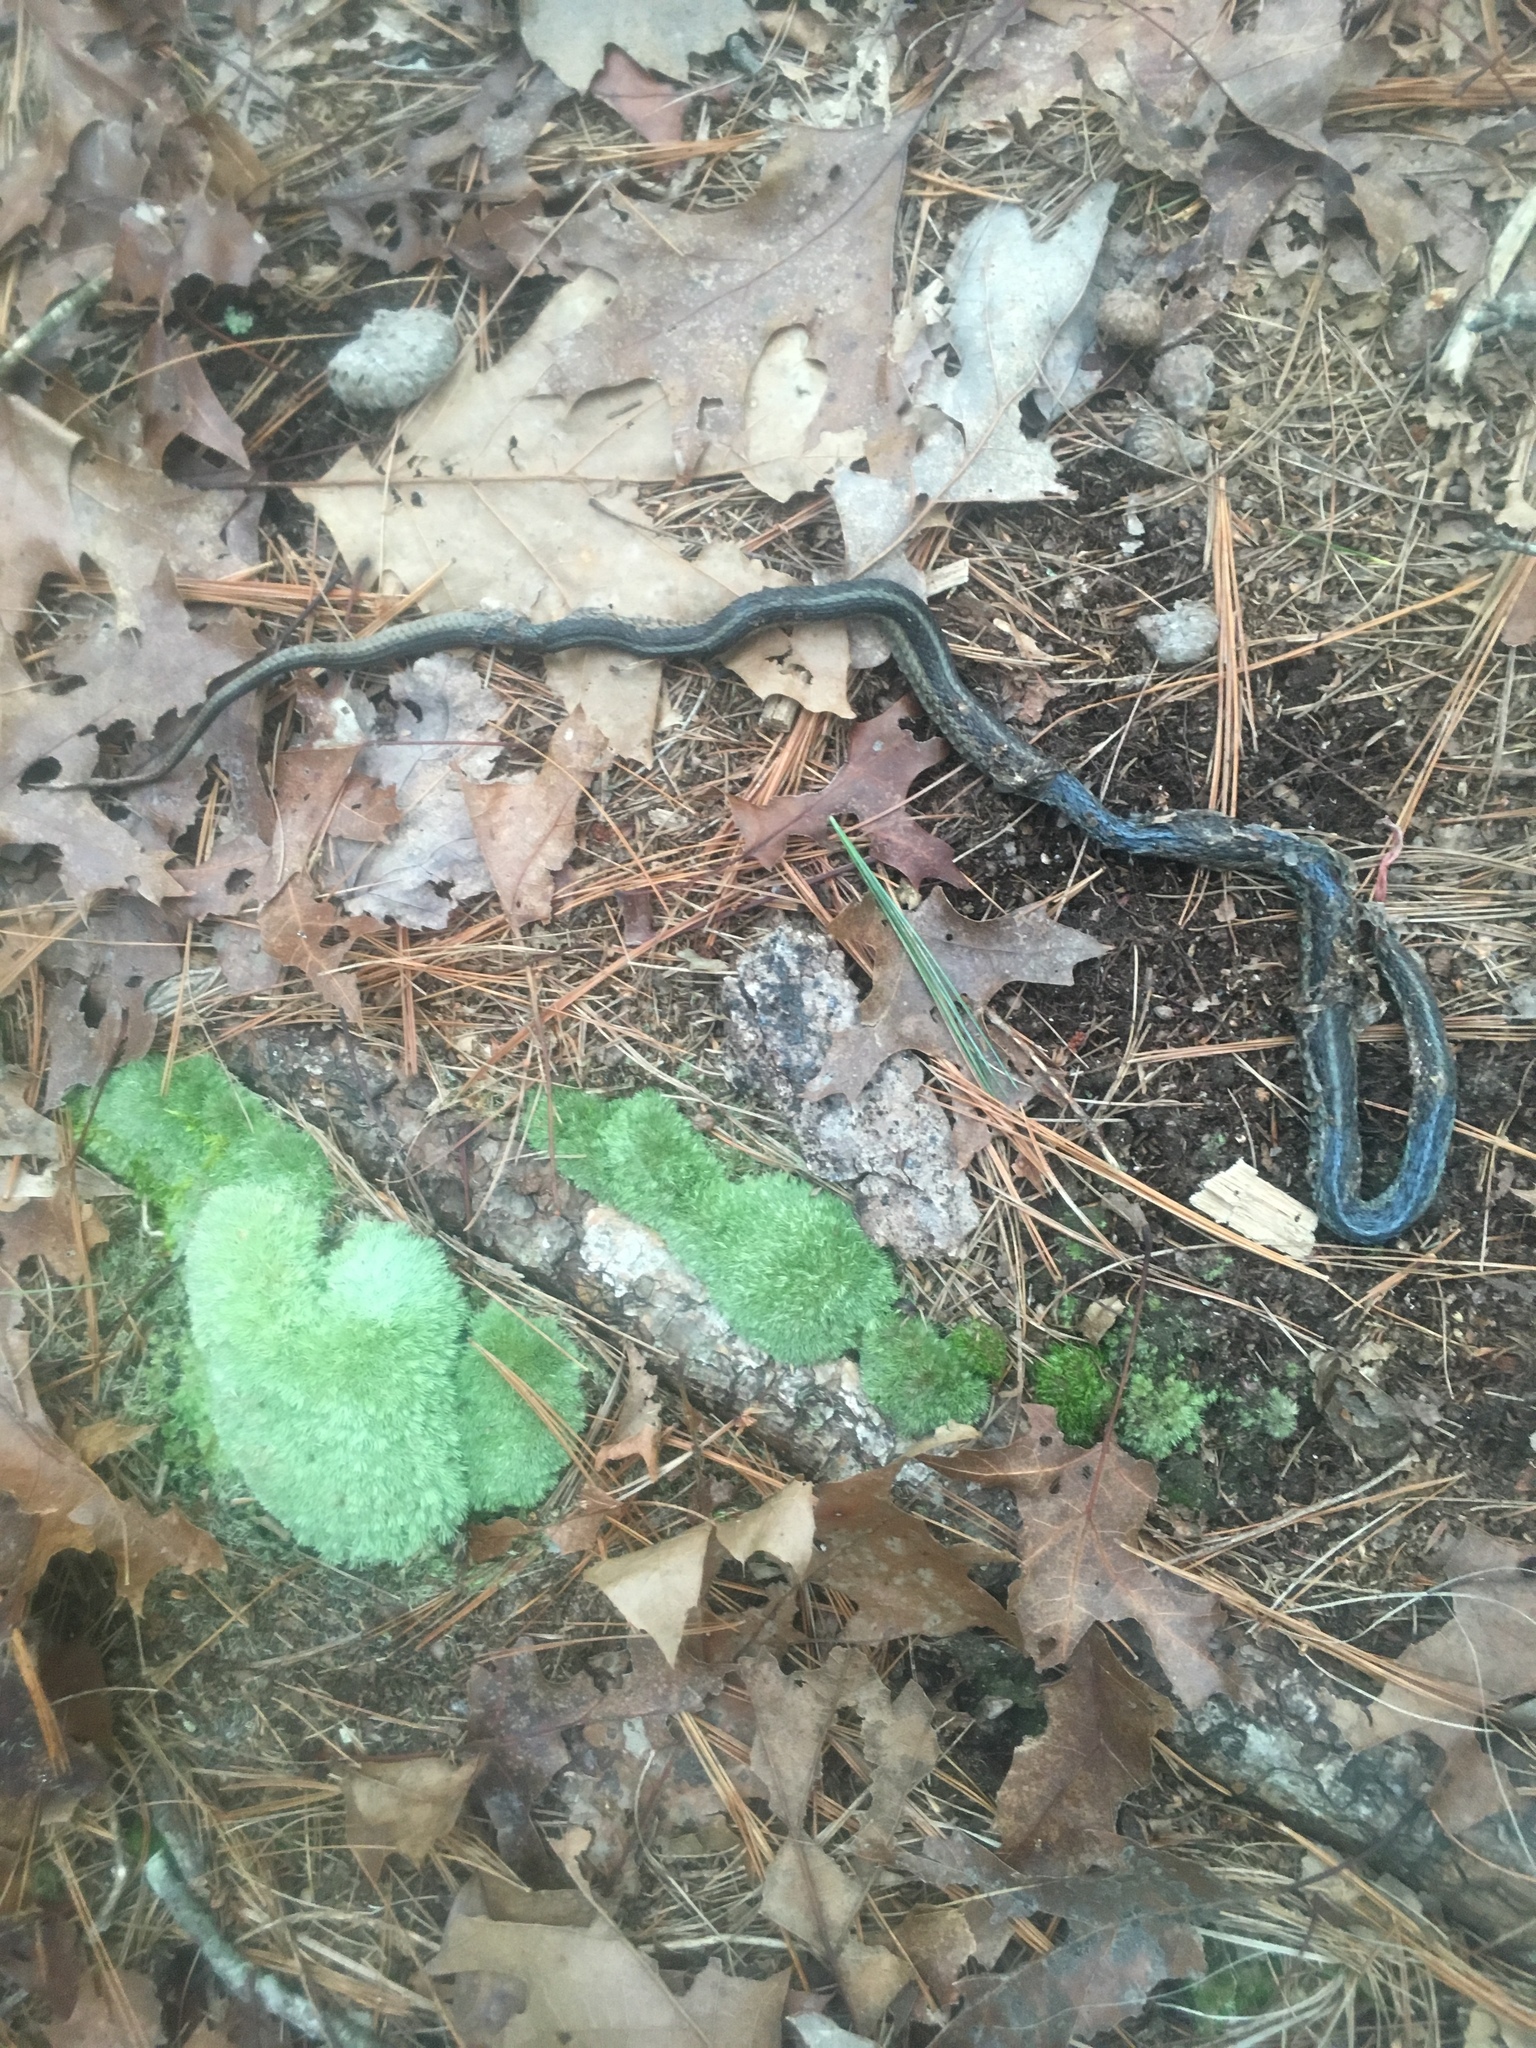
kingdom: Animalia
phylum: Chordata
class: Squamata
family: Colubridae
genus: Thamnophis
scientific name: Thamnophis sirtalis
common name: Common garter snake
